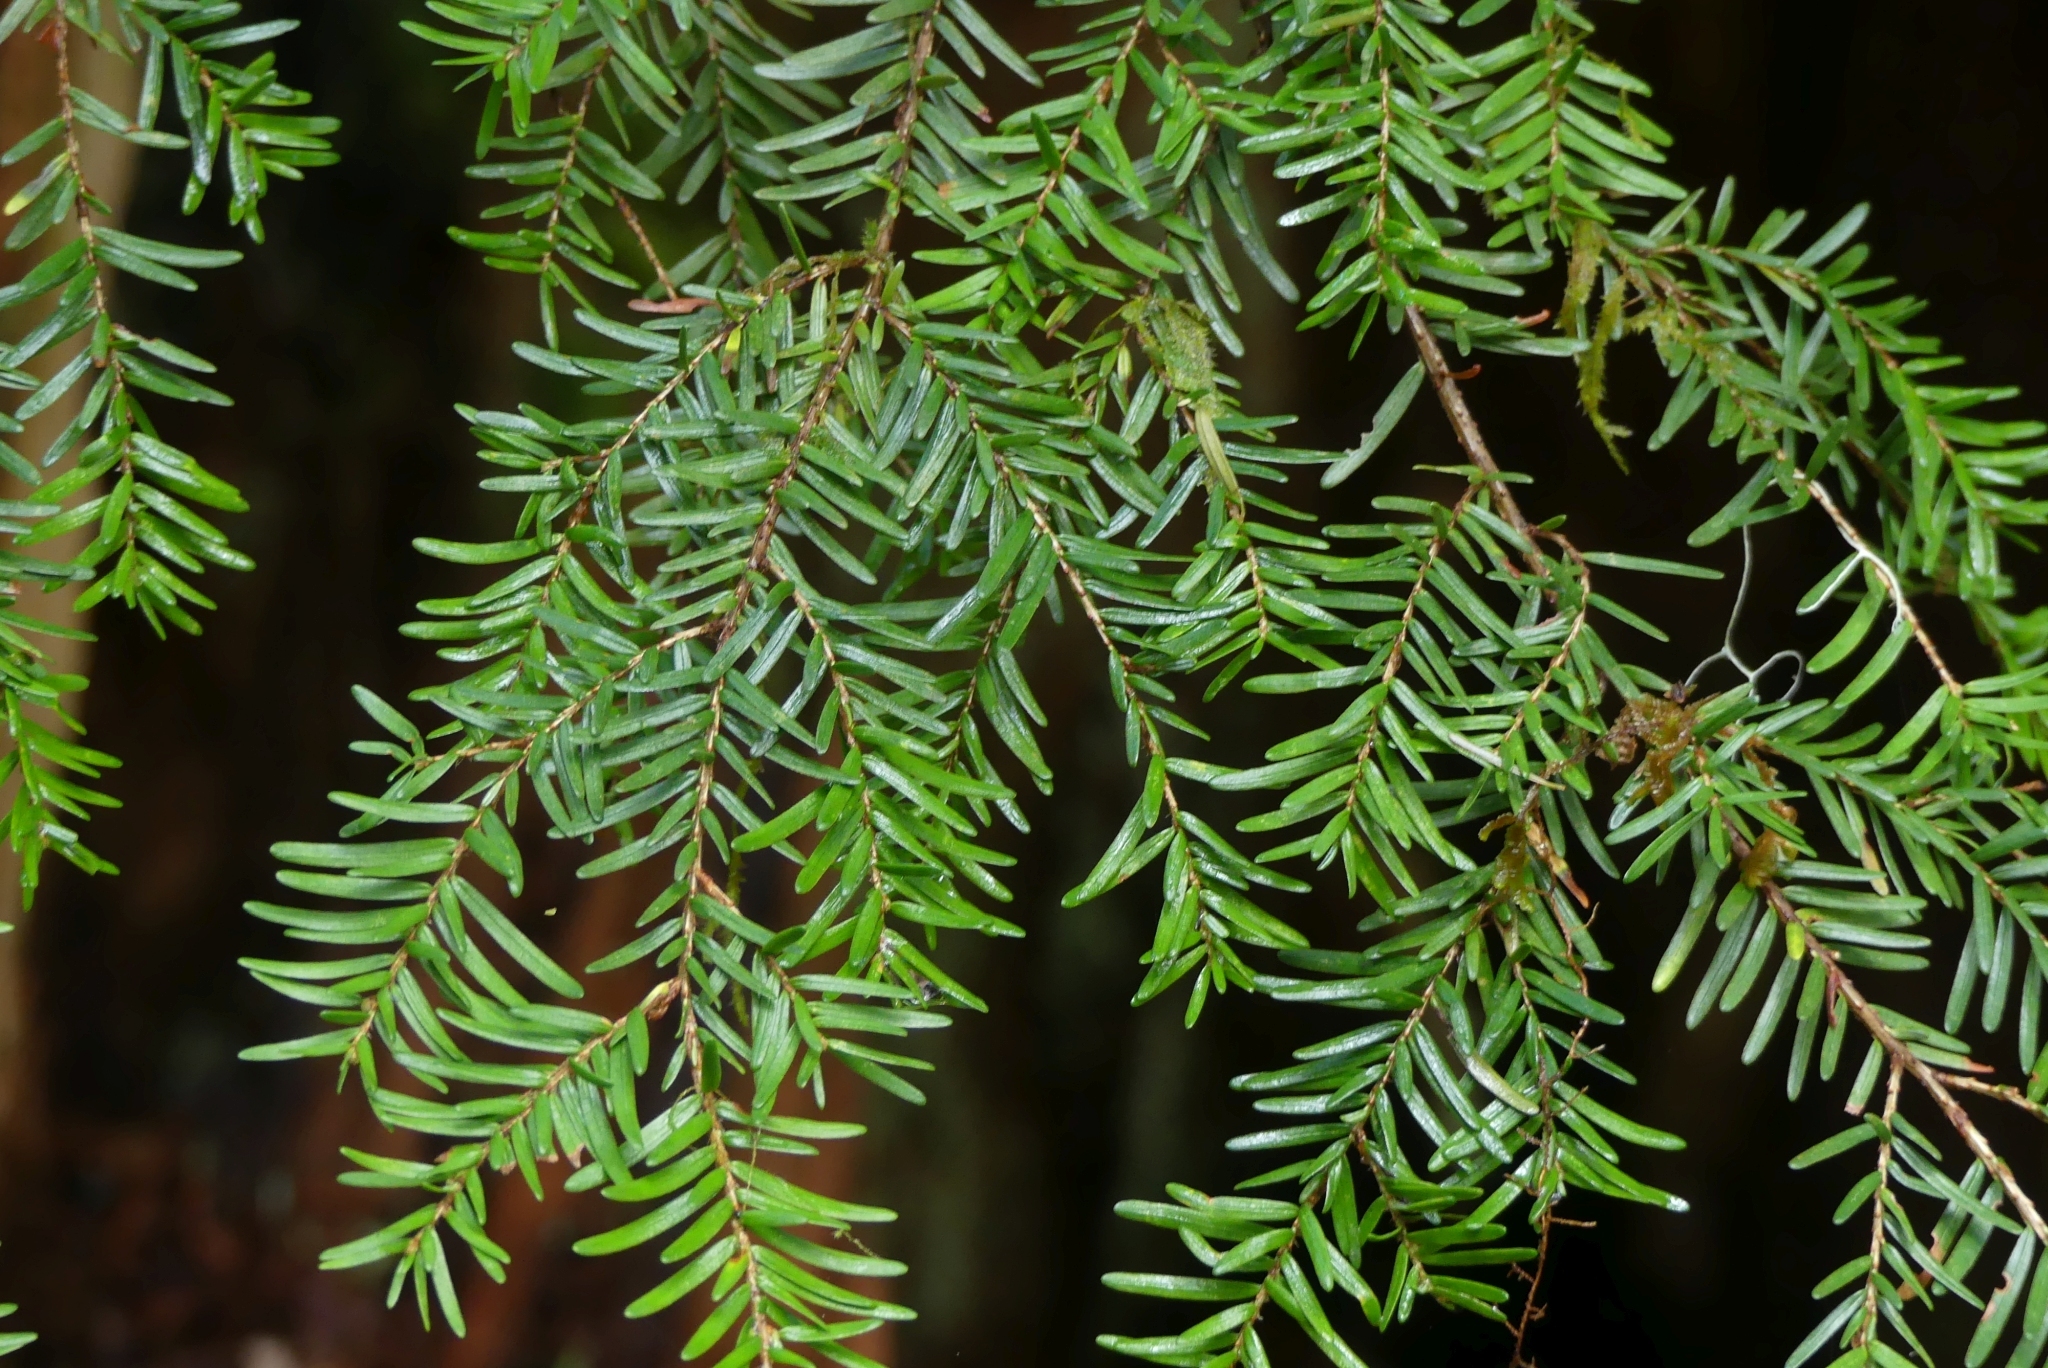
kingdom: Plantae
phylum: Tracheophyta
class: Pinopsida
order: Pinales
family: Pinaceae
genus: Tsuga
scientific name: Tsuga heterophylla
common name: Western hemlock
